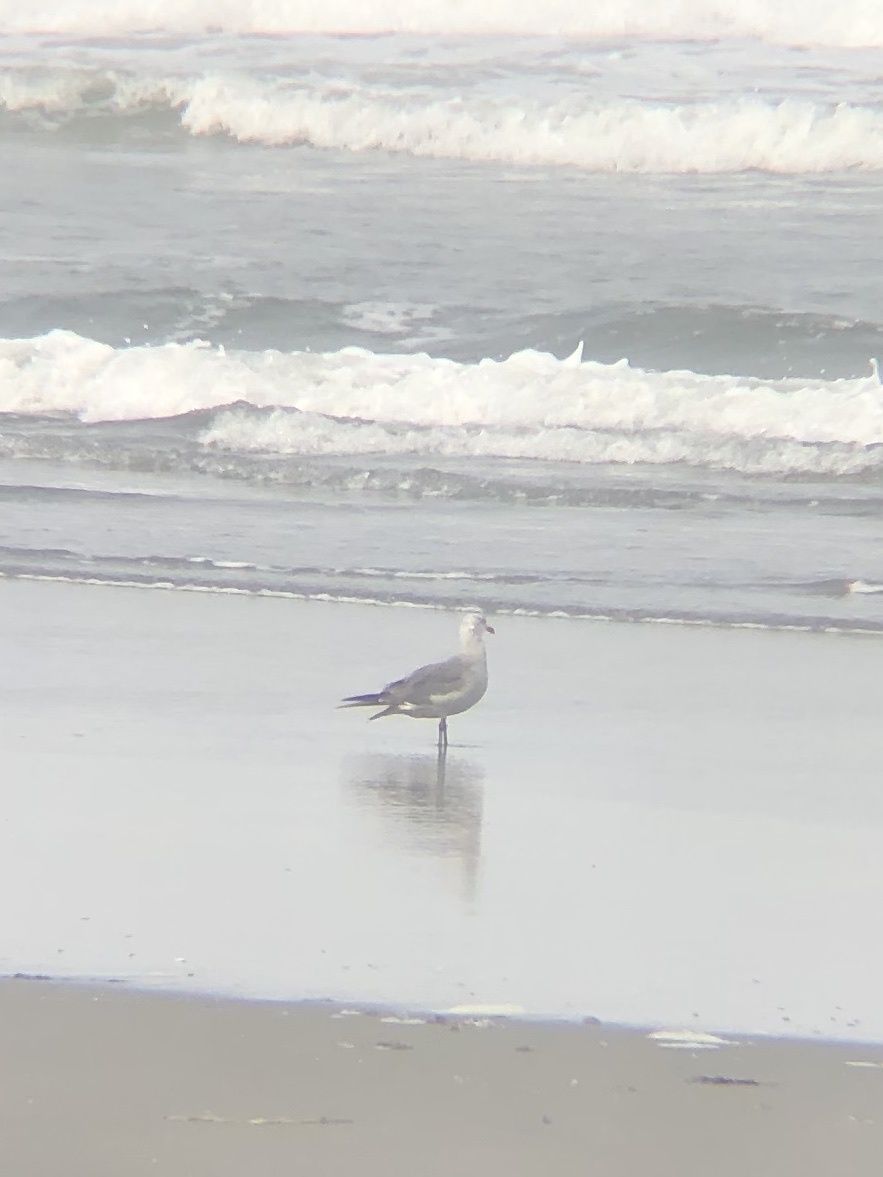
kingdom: Animalia
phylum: Chordata
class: Aves
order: Charadriiformes
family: Laridae
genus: Larus
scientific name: Larus heermanni
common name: Heermann's gull
